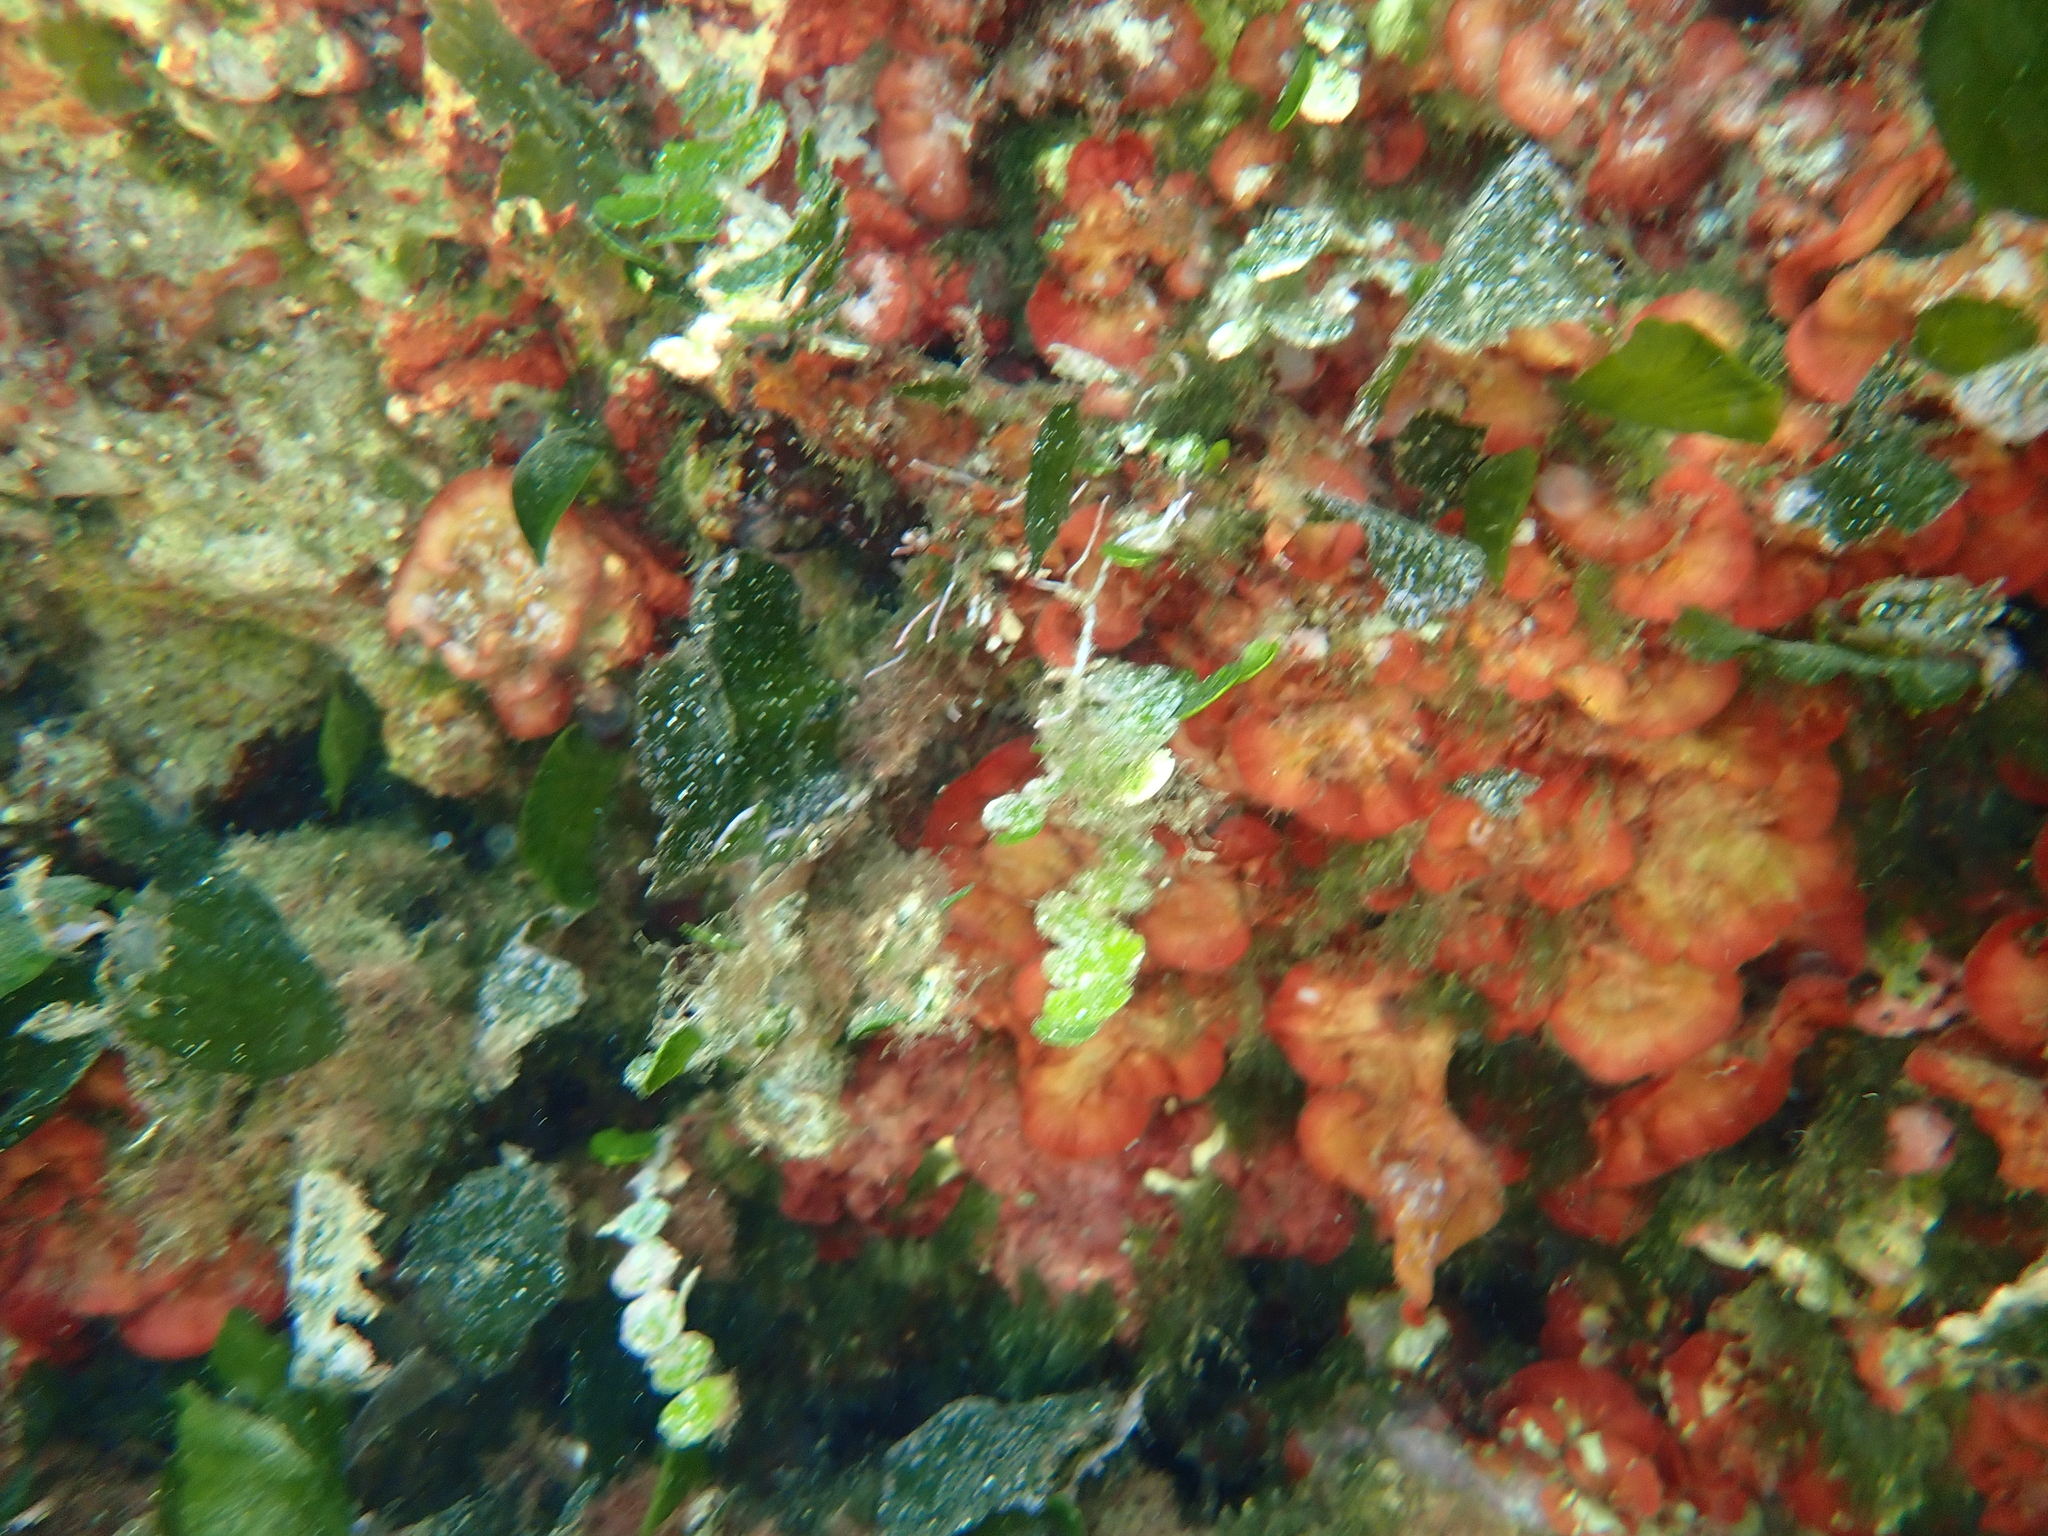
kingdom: Plantae
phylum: Chlorophyta
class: Ulvophyceae
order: Bryopsidales
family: Codiaceae
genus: Codium
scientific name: Codium Flabellia petiolata
